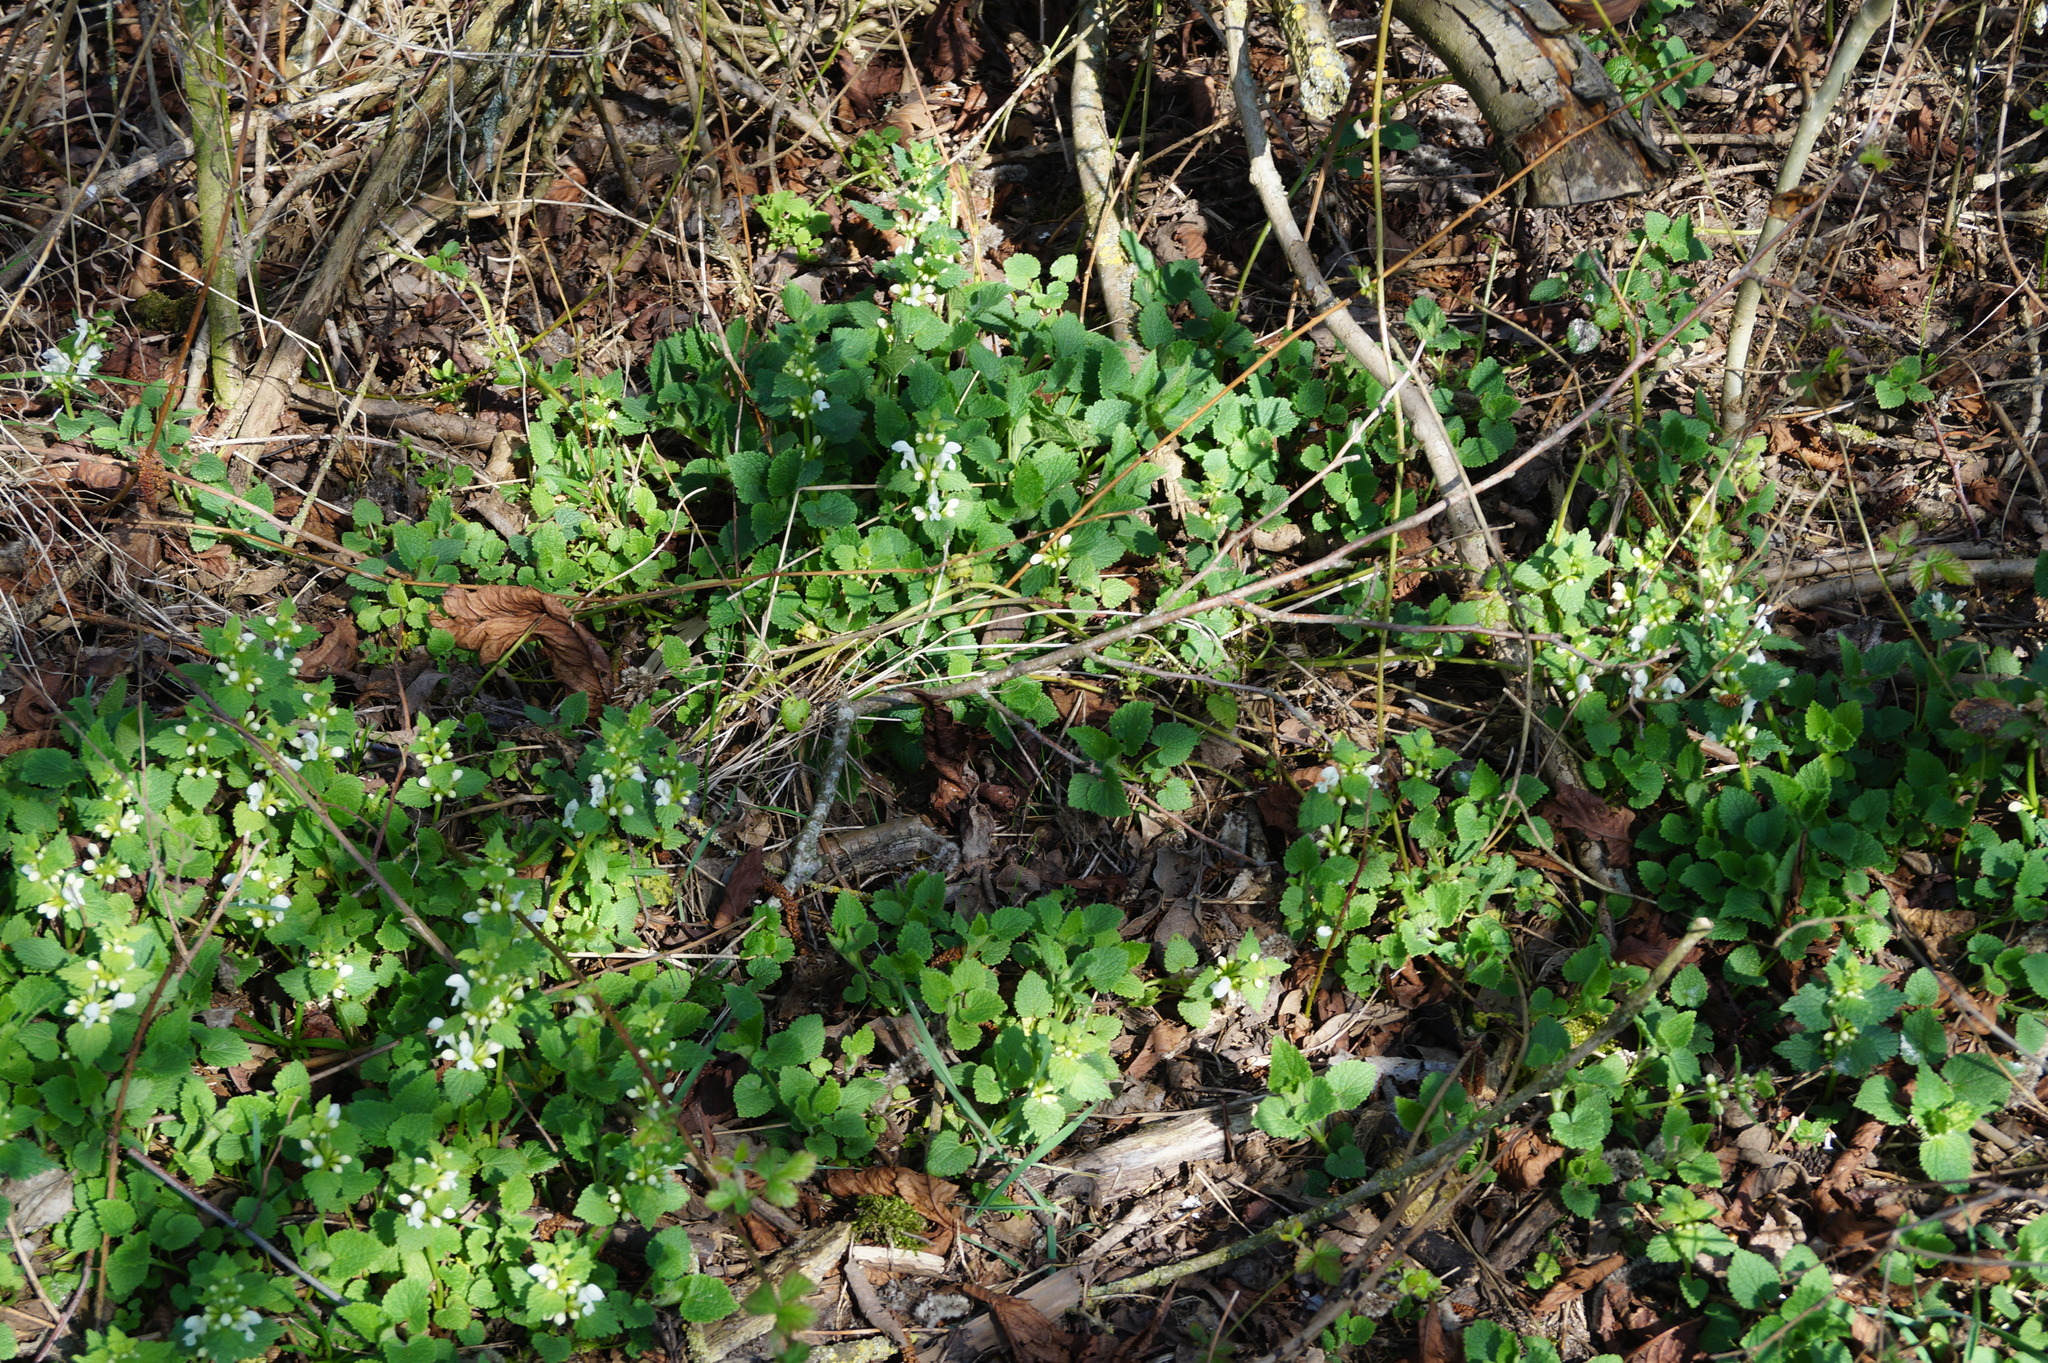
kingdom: Plantae
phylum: Tracheophyta
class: Magnoliopsida
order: Lamiales
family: Lamiaceae
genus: Lamium
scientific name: Lamium album
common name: White dead-nettle
